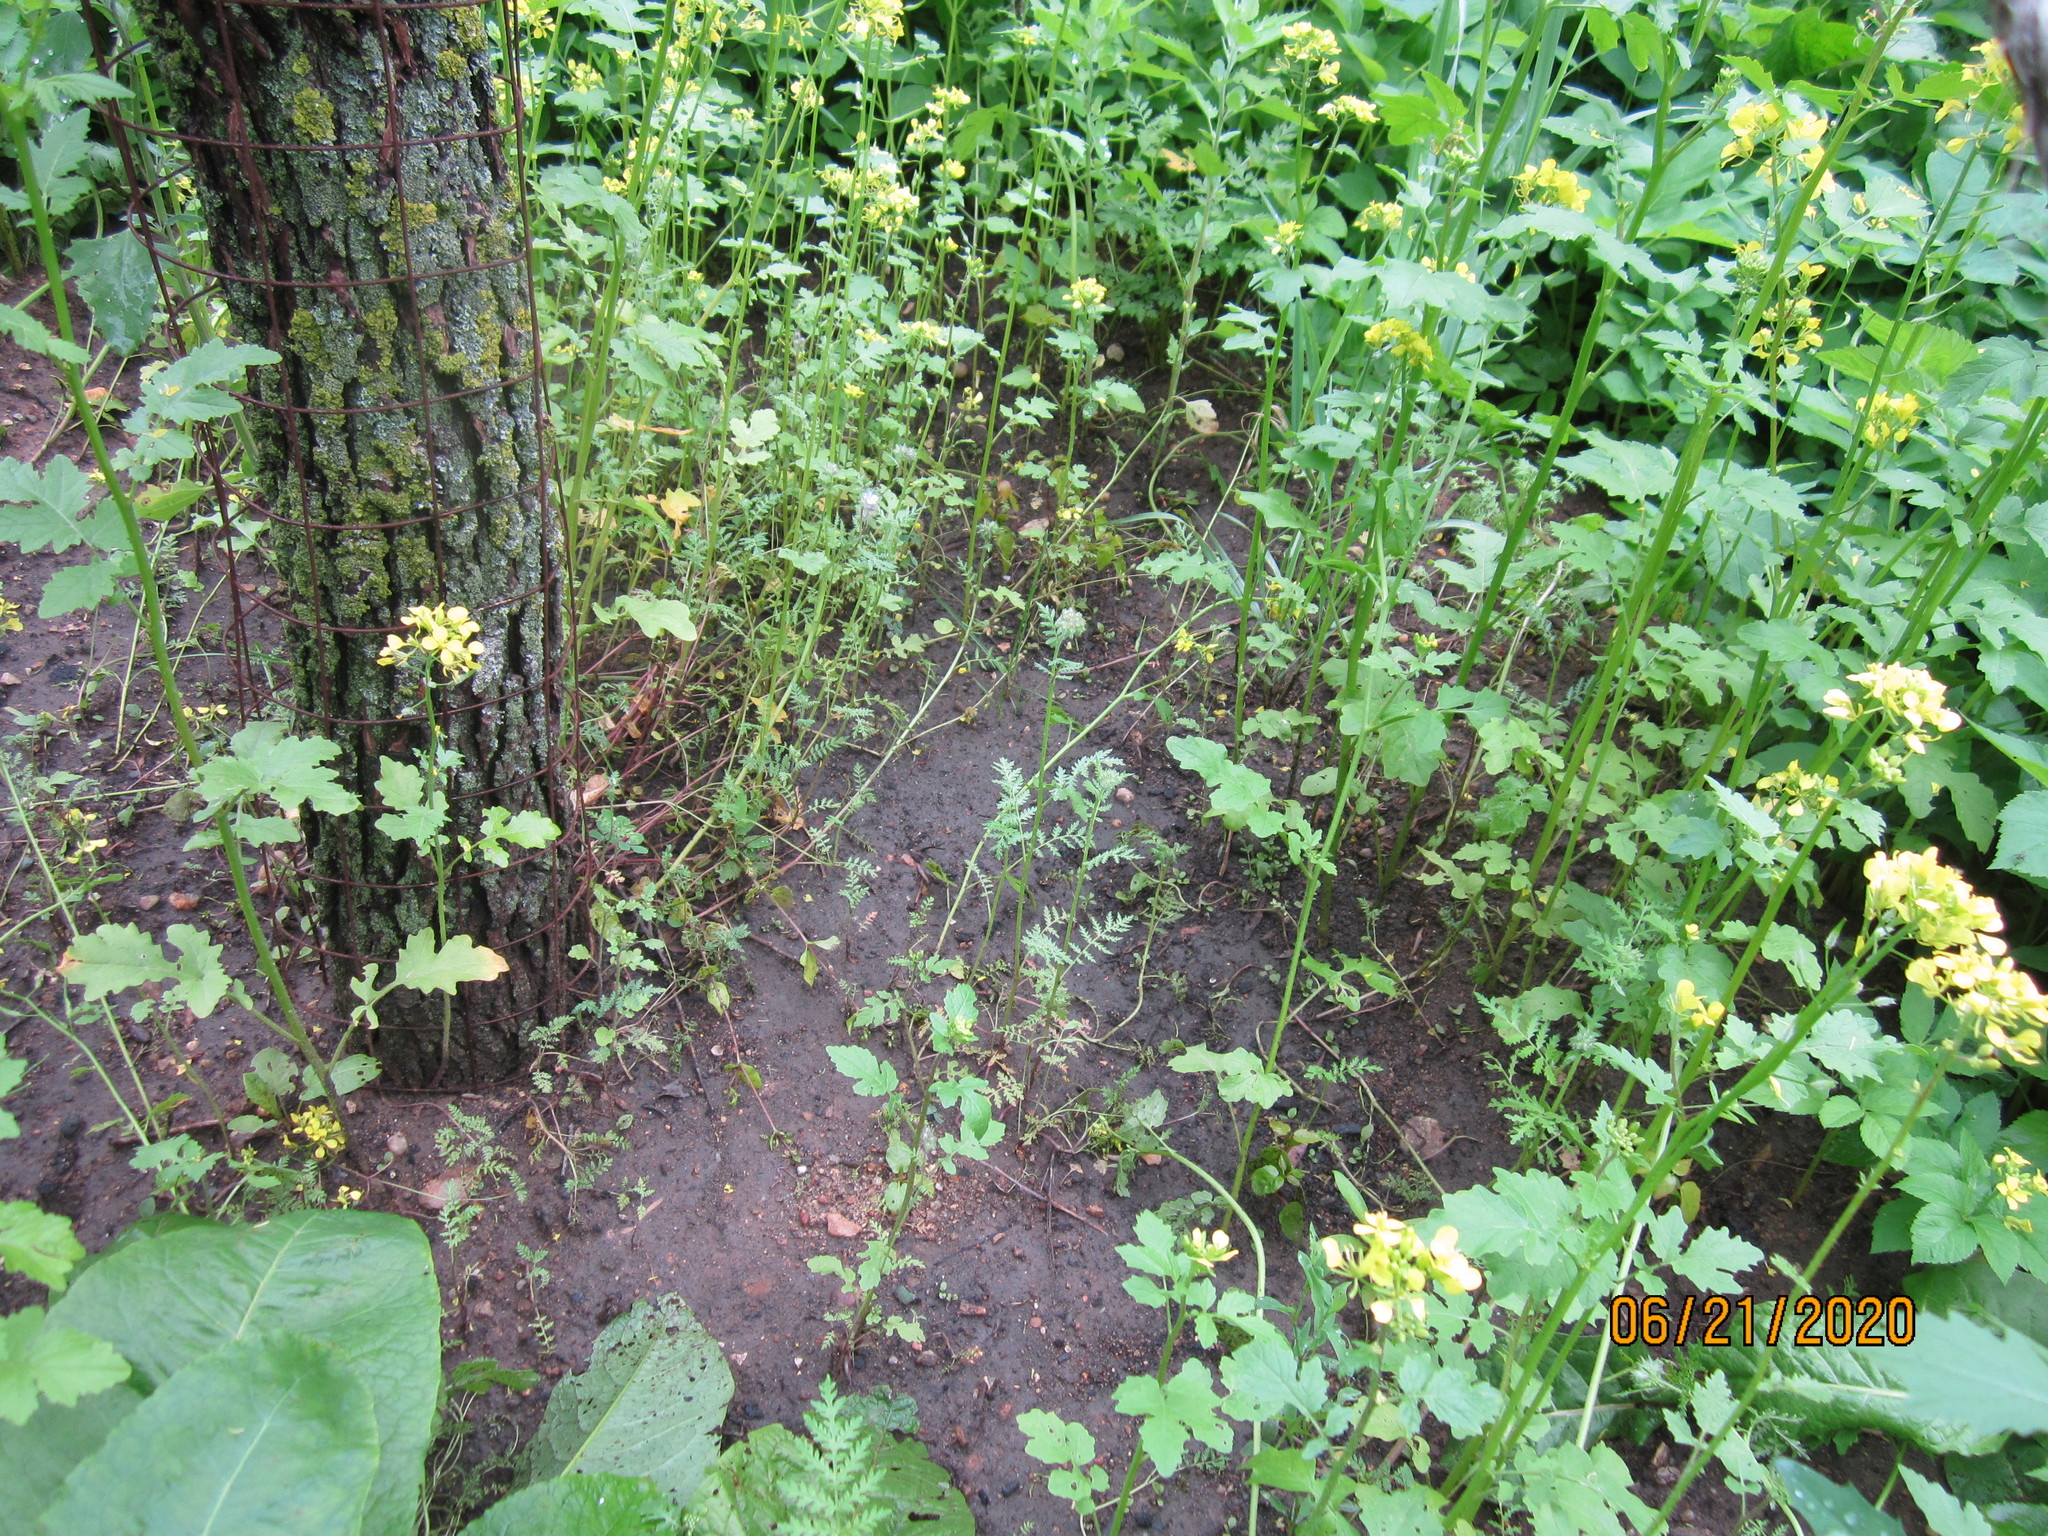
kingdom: Plantae
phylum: Tracheophyta
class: Magnoliopsida
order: Boraginales
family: Hydrophyllaceae
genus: Phacelia
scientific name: Phacelia tanacetifolia
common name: Phacelia
